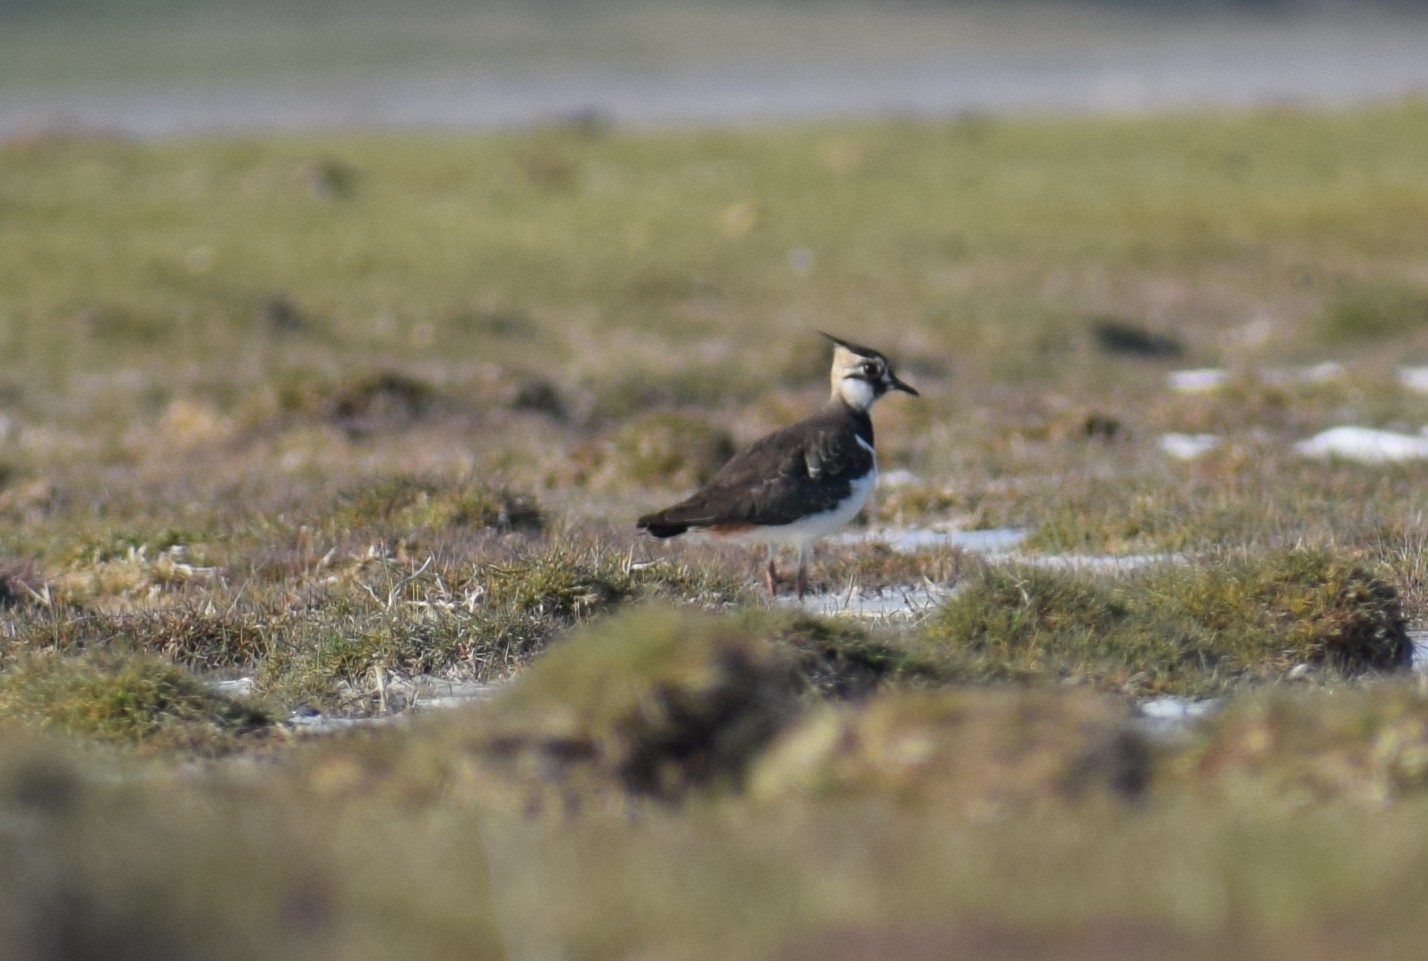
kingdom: Animalia
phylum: Chordata
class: Aves
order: Charadriiformes
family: Charadriidae
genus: Vanellus
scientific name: Vanellus vanellus
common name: Northern lapwing
